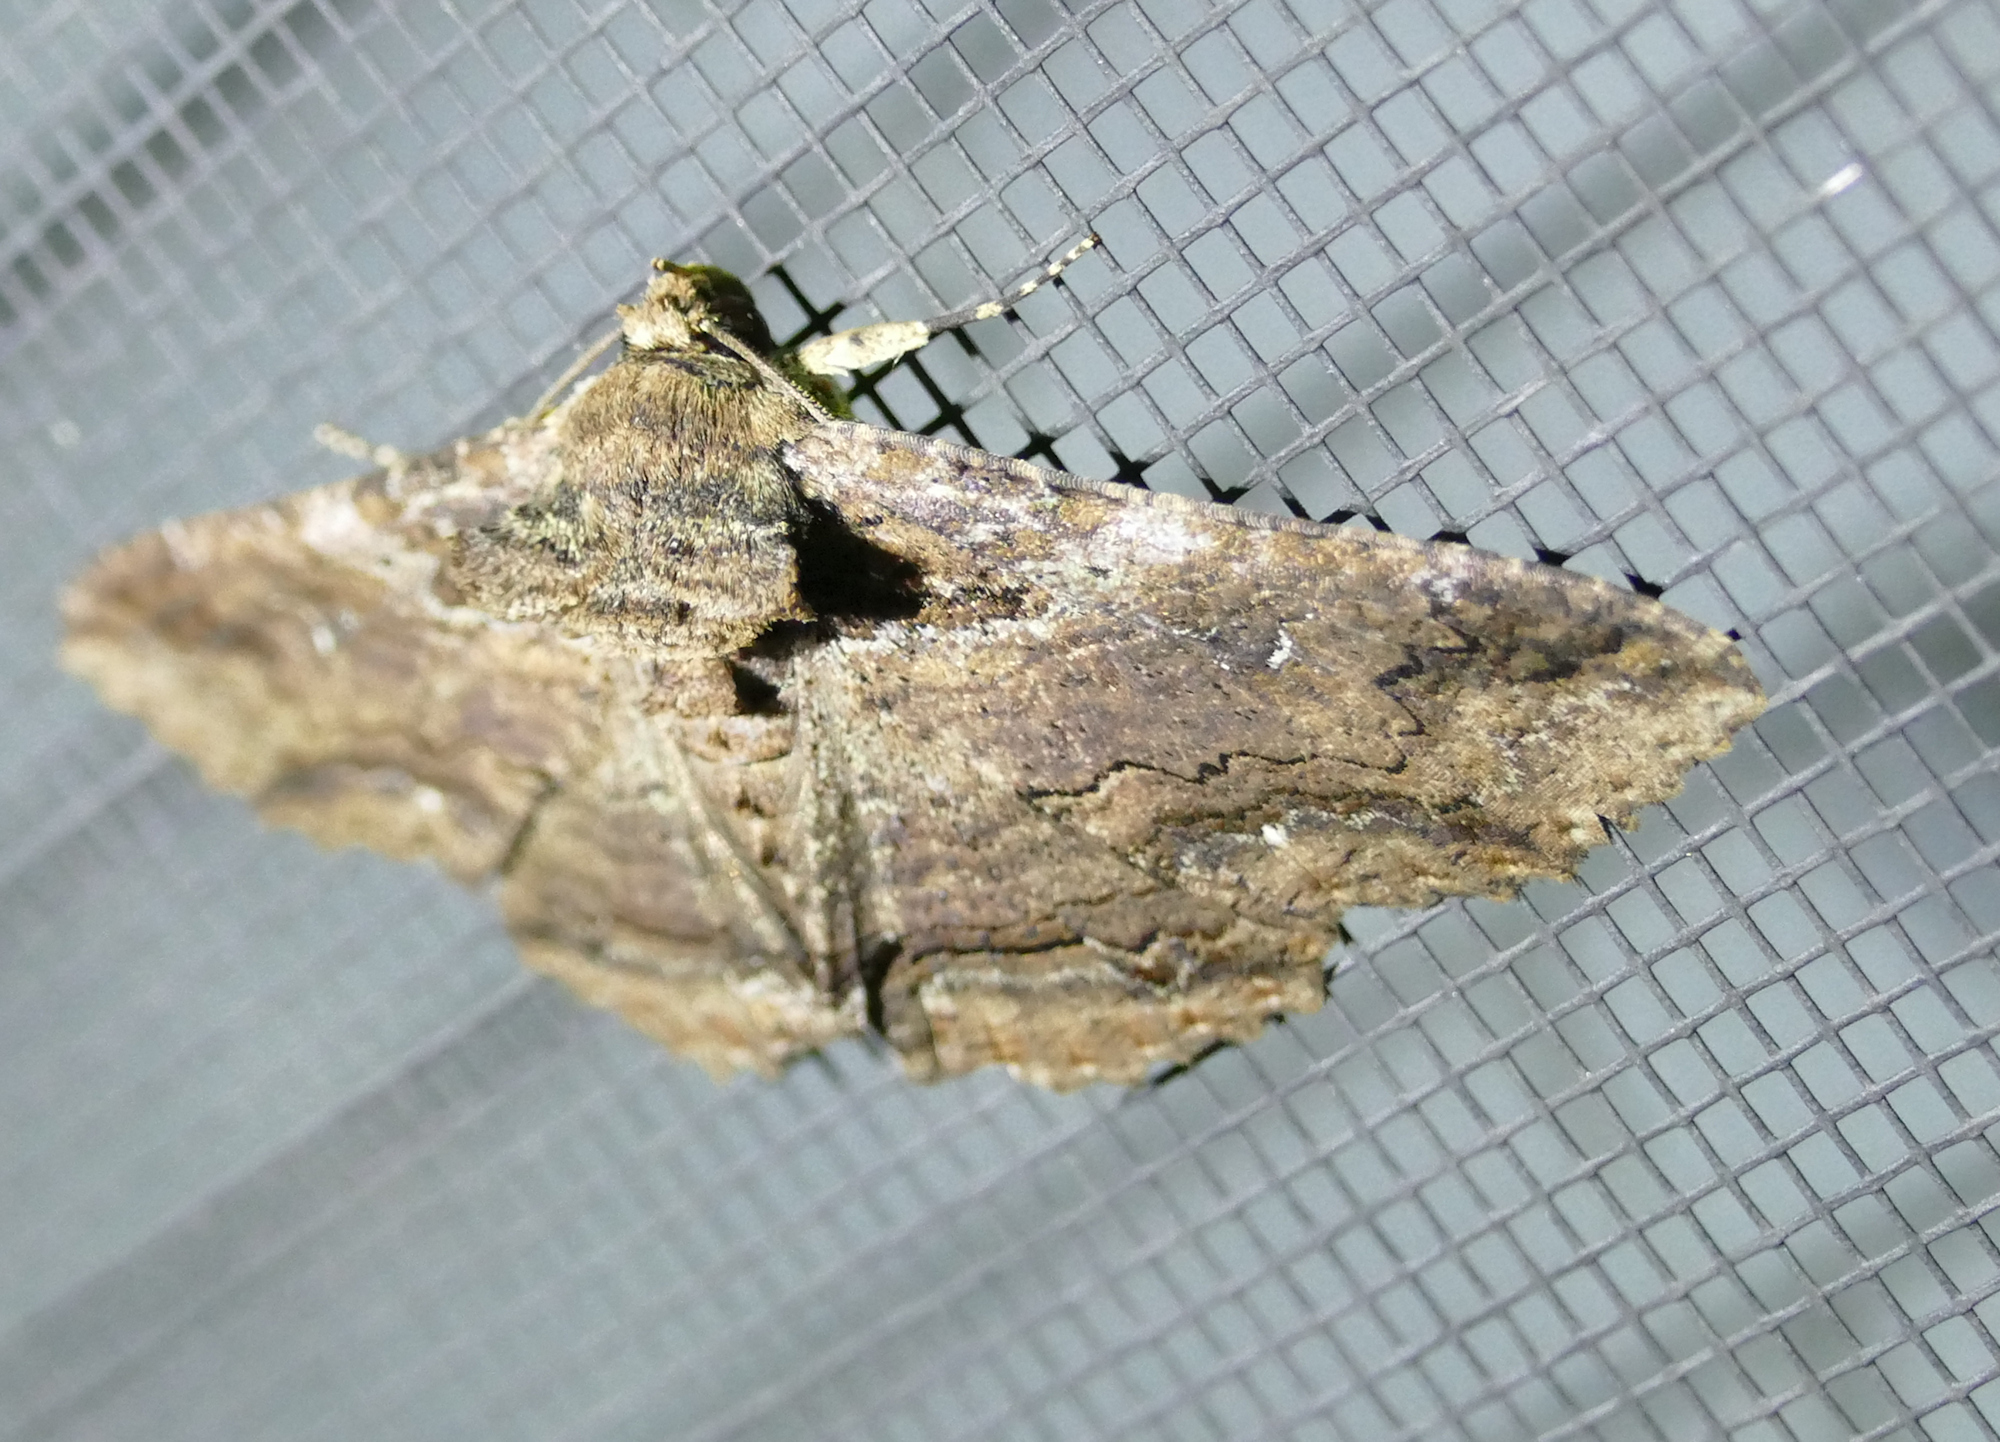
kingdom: Animalia
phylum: Arthropoda
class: Insecta
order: Lepidoptera
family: Erebidae
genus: Zale
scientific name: Zale lunata
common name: Lunate zale moth
